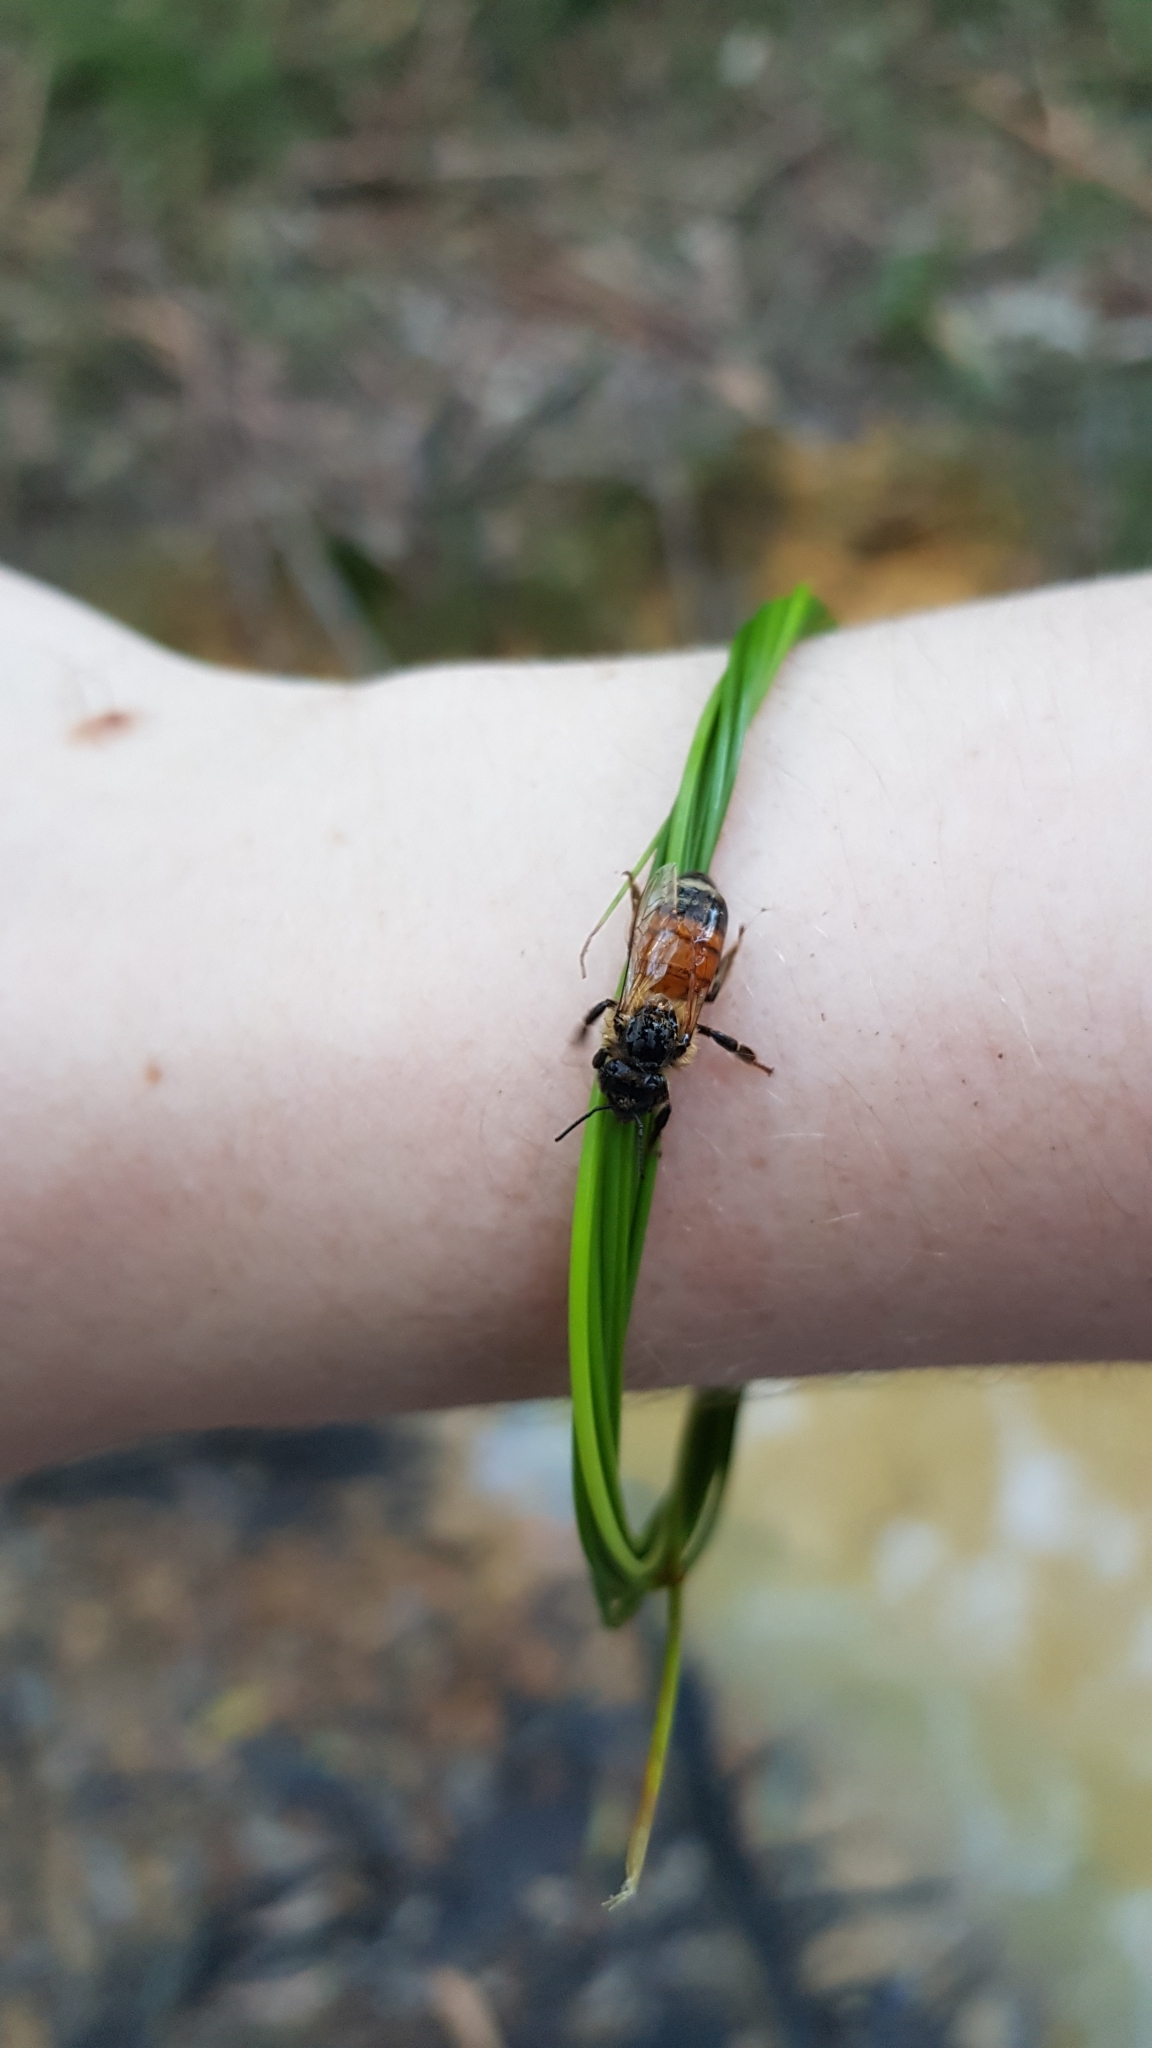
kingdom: Animalia
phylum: Arthropoda
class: Insecta
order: Hymenoptera
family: Apidae
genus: Apis
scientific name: Apis mellifera
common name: Honey bee
